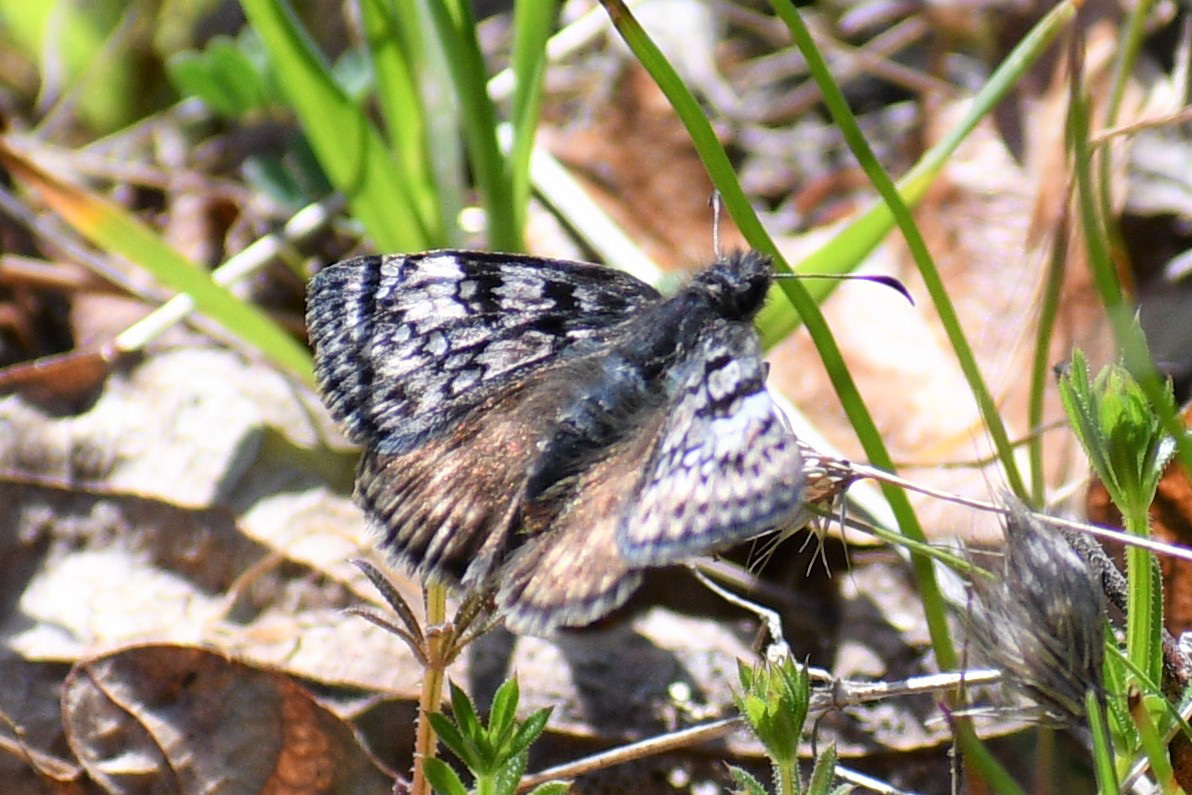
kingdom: Animalia
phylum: Arthropoda
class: Insecta
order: Lepidoptera
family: Hesperiidae
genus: Erynnis
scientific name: Erynnis propertius
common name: Propertius duskywing
